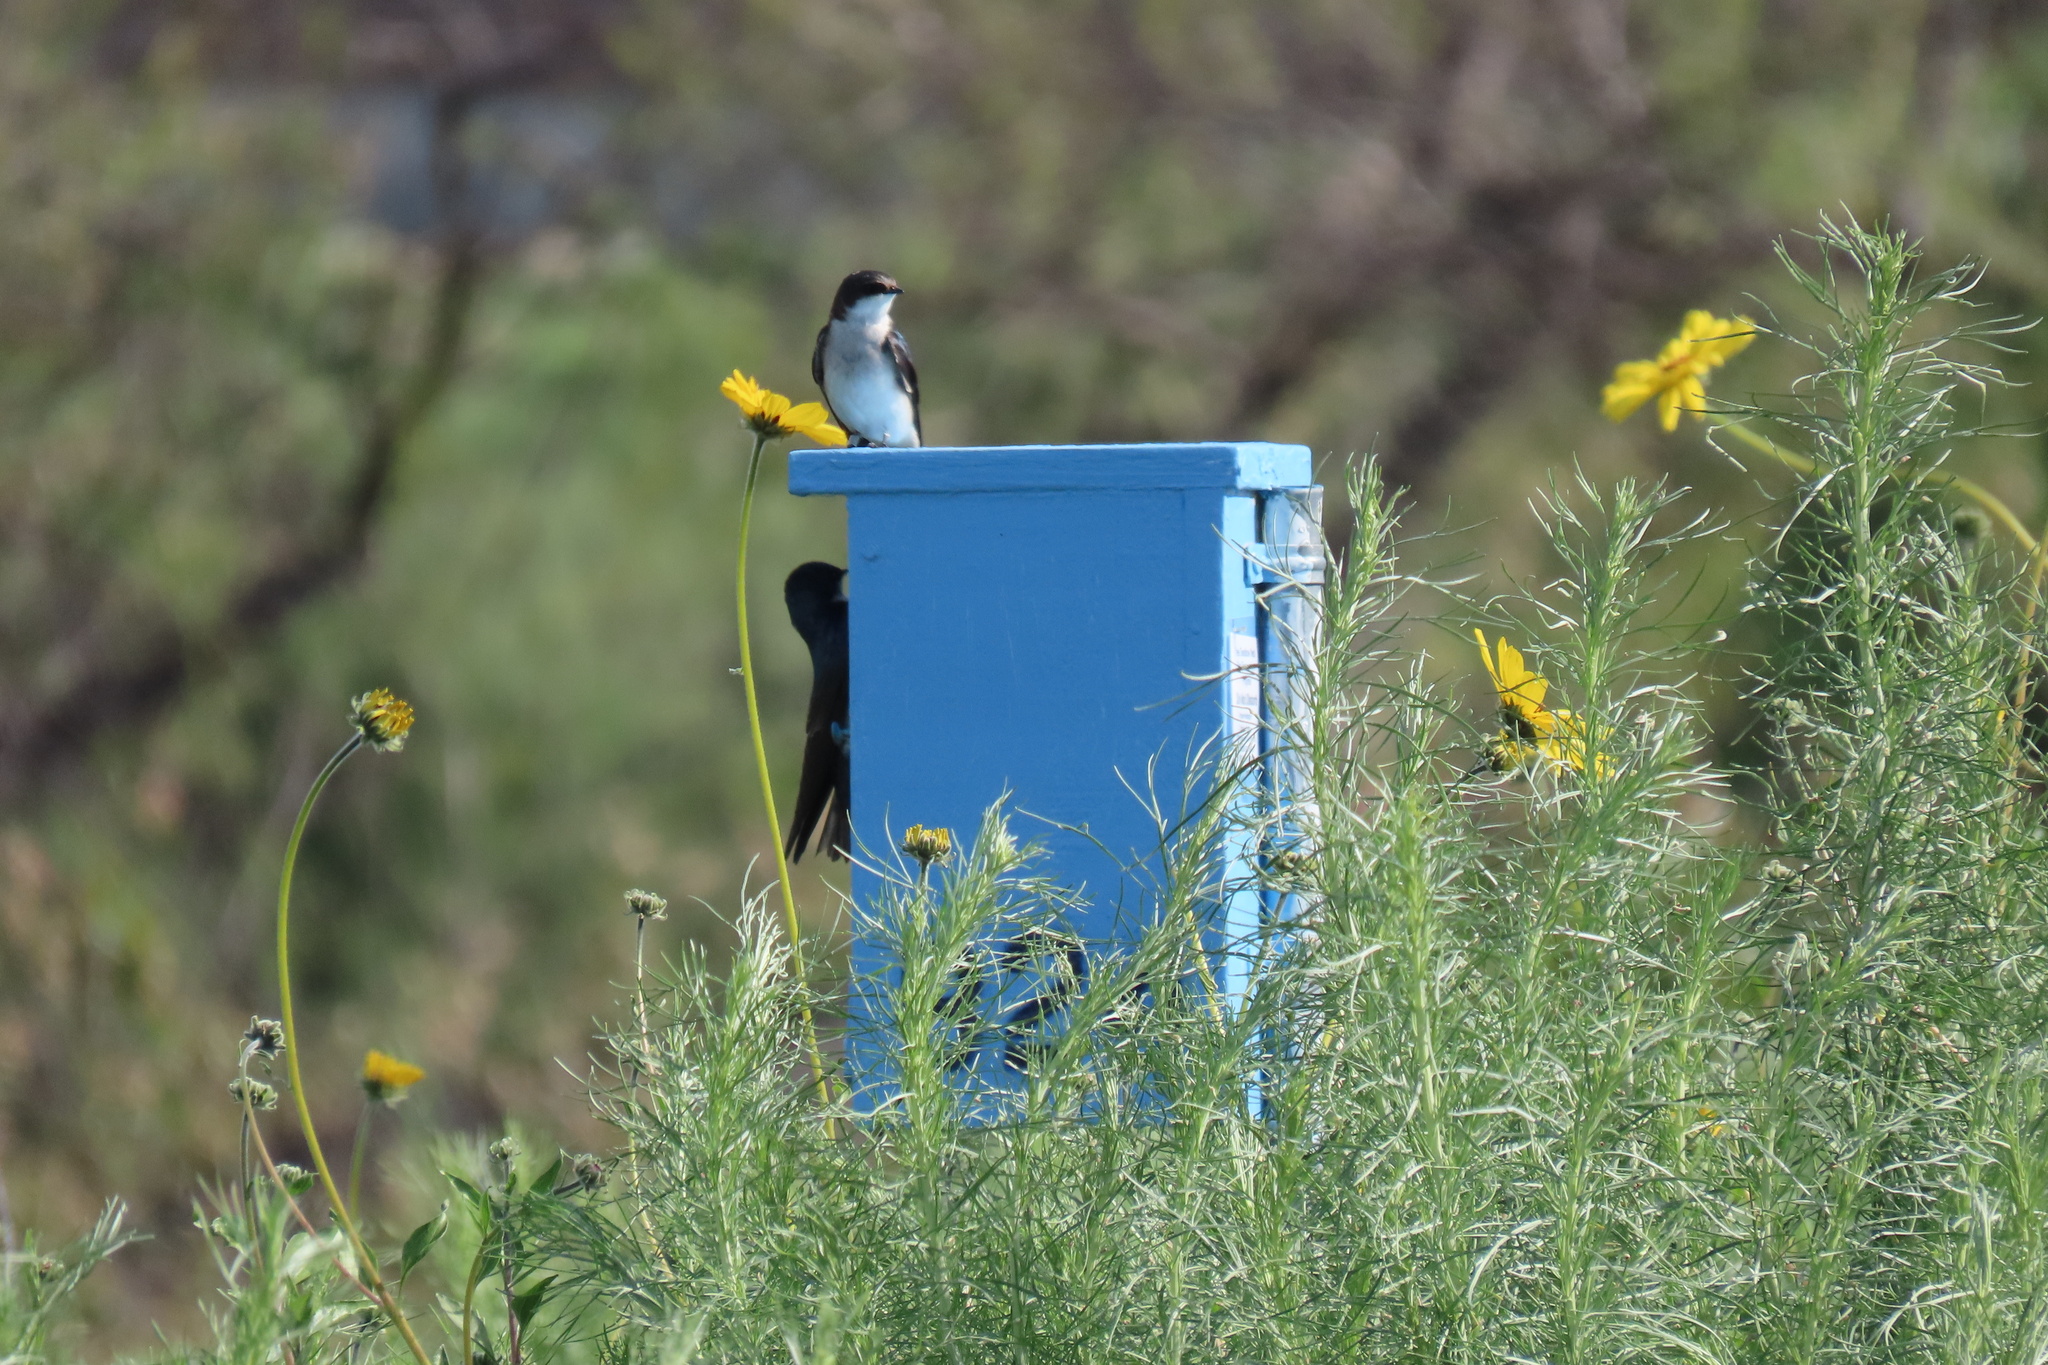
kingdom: Animalia
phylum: Chordata
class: Aves
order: Passeriformes
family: Hirundinidae
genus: Tachycineta
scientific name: Tachycineta bicolor
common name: Tree swallow
